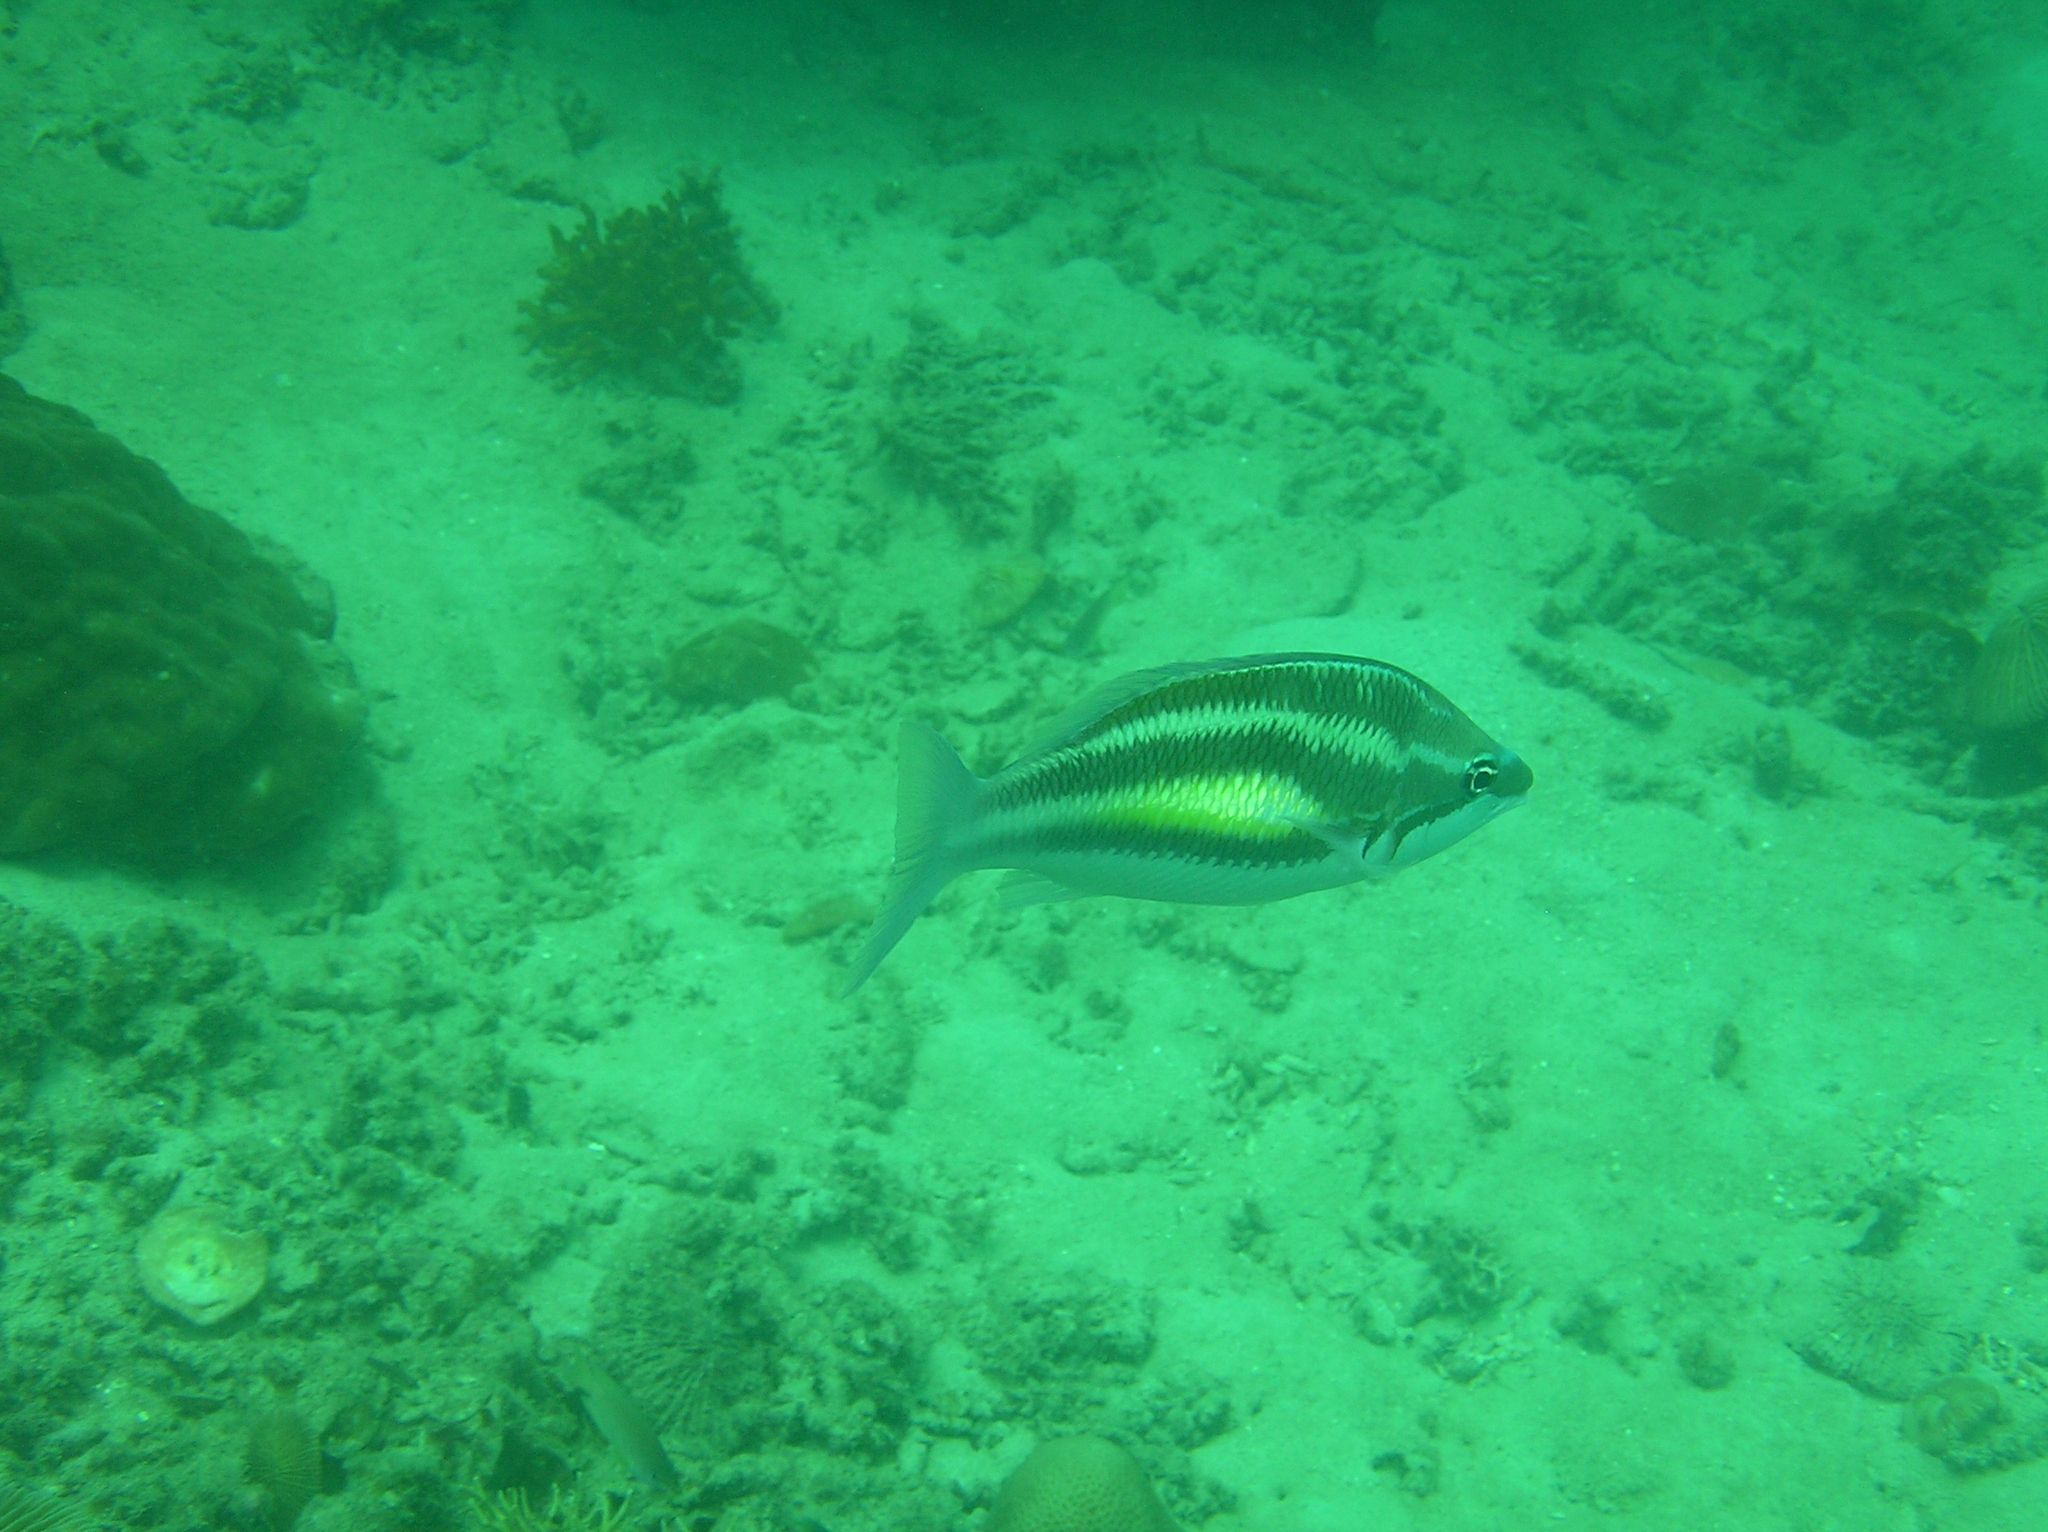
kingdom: Animalia
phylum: Chordata
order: Perciformes
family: Nemipteridae
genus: Pentapodus
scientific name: Pentapodus trivittatus
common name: Three-striped whiptail
